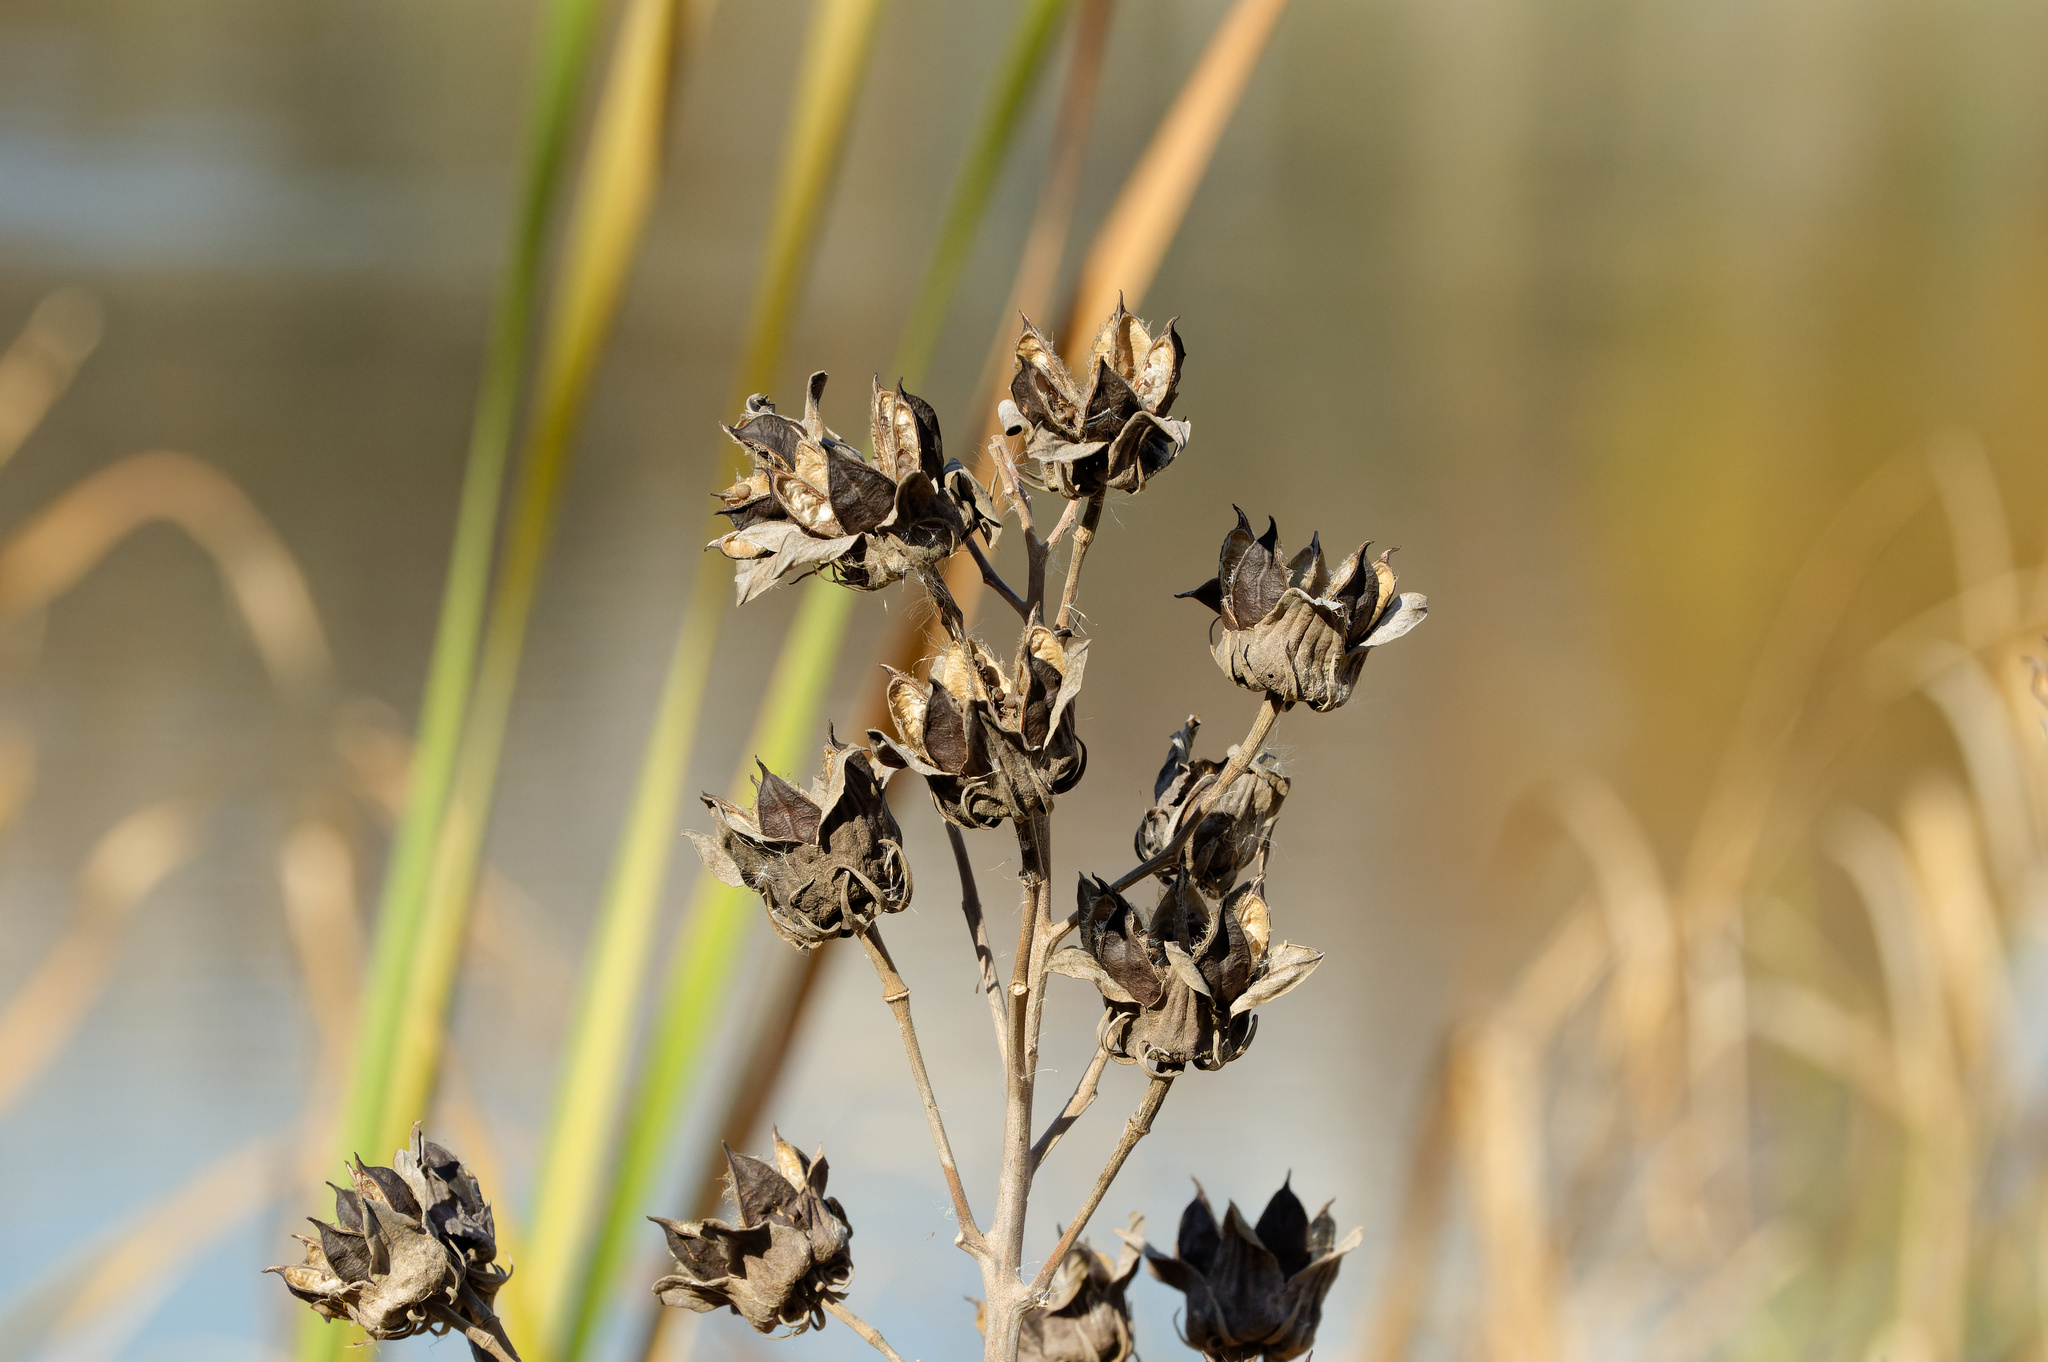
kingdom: Plantae
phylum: Tracheophyta
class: Magnoliopsida
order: Malvales
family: Malvaceae
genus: Hibiscus
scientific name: Hibiscus moscheutos
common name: Common rose-mallow
